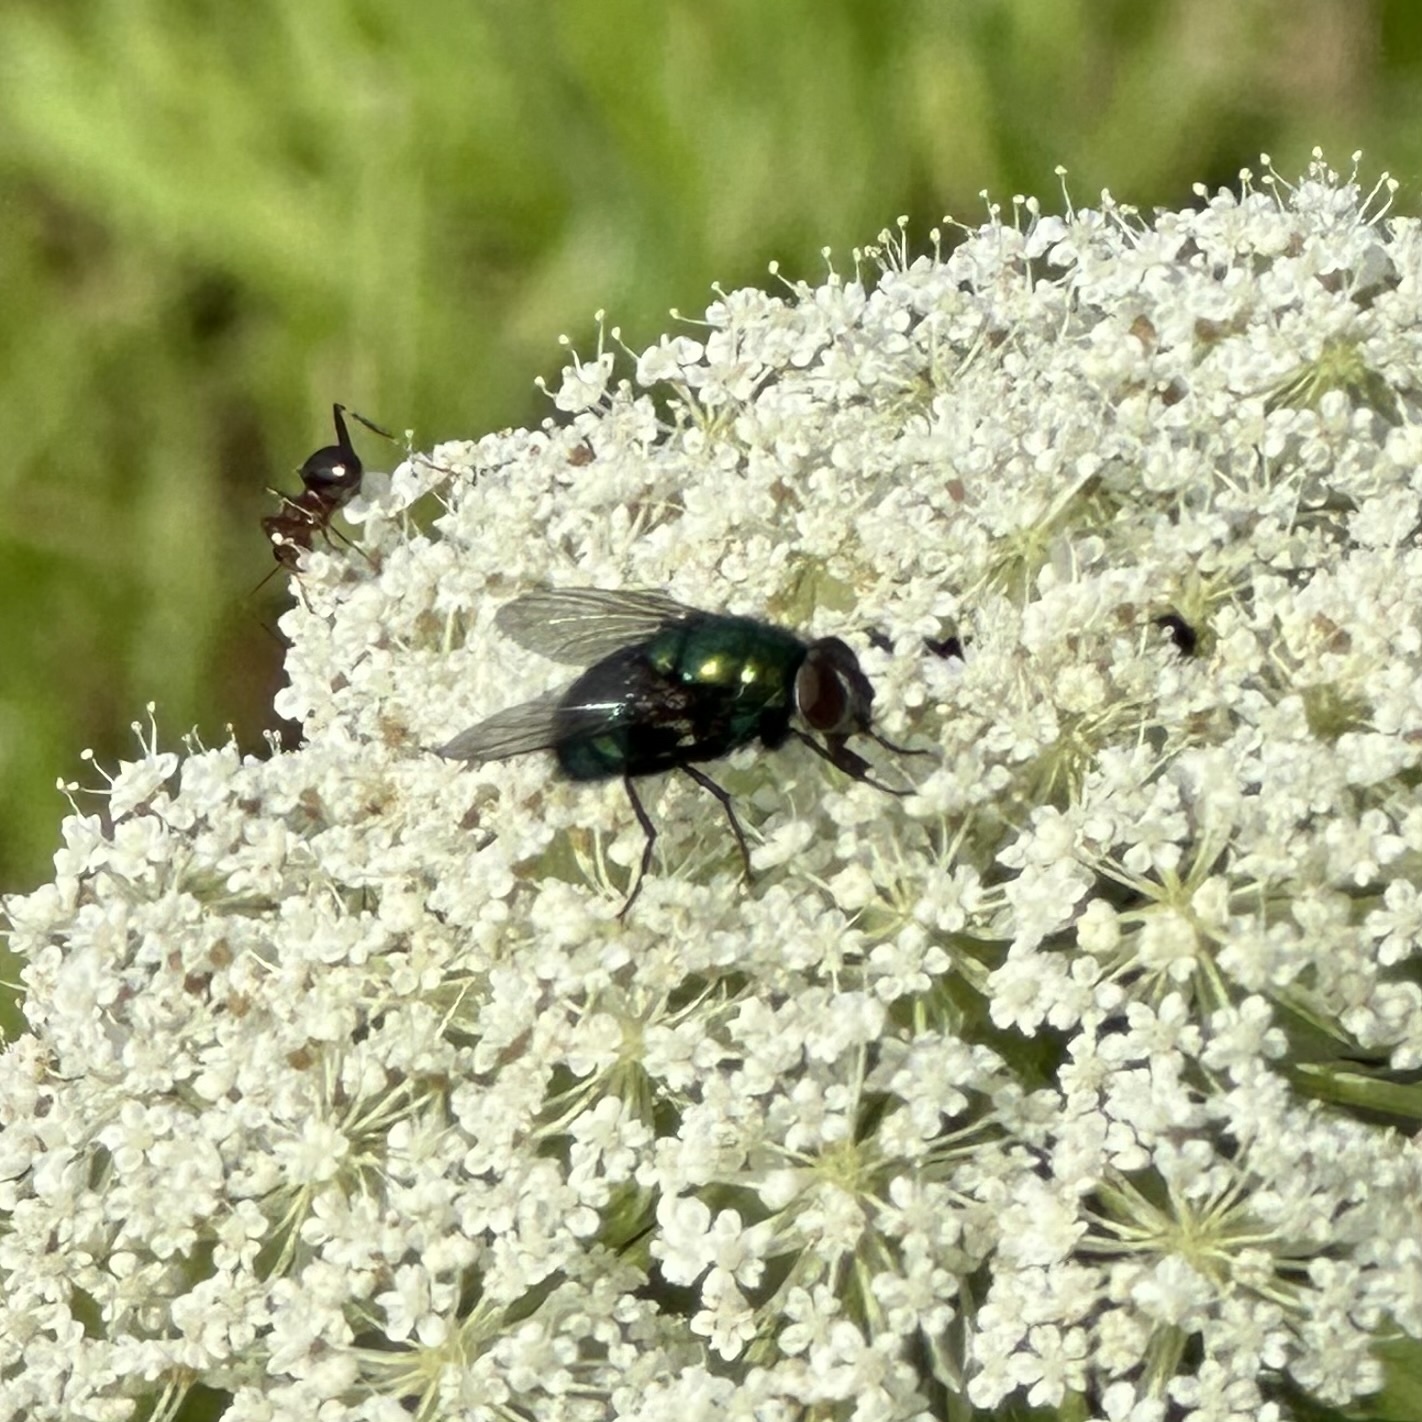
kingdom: Animalia
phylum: Arthropoda
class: Insecta
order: Diptera
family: Calliphoridae
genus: Lucilia
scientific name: Lucilia
